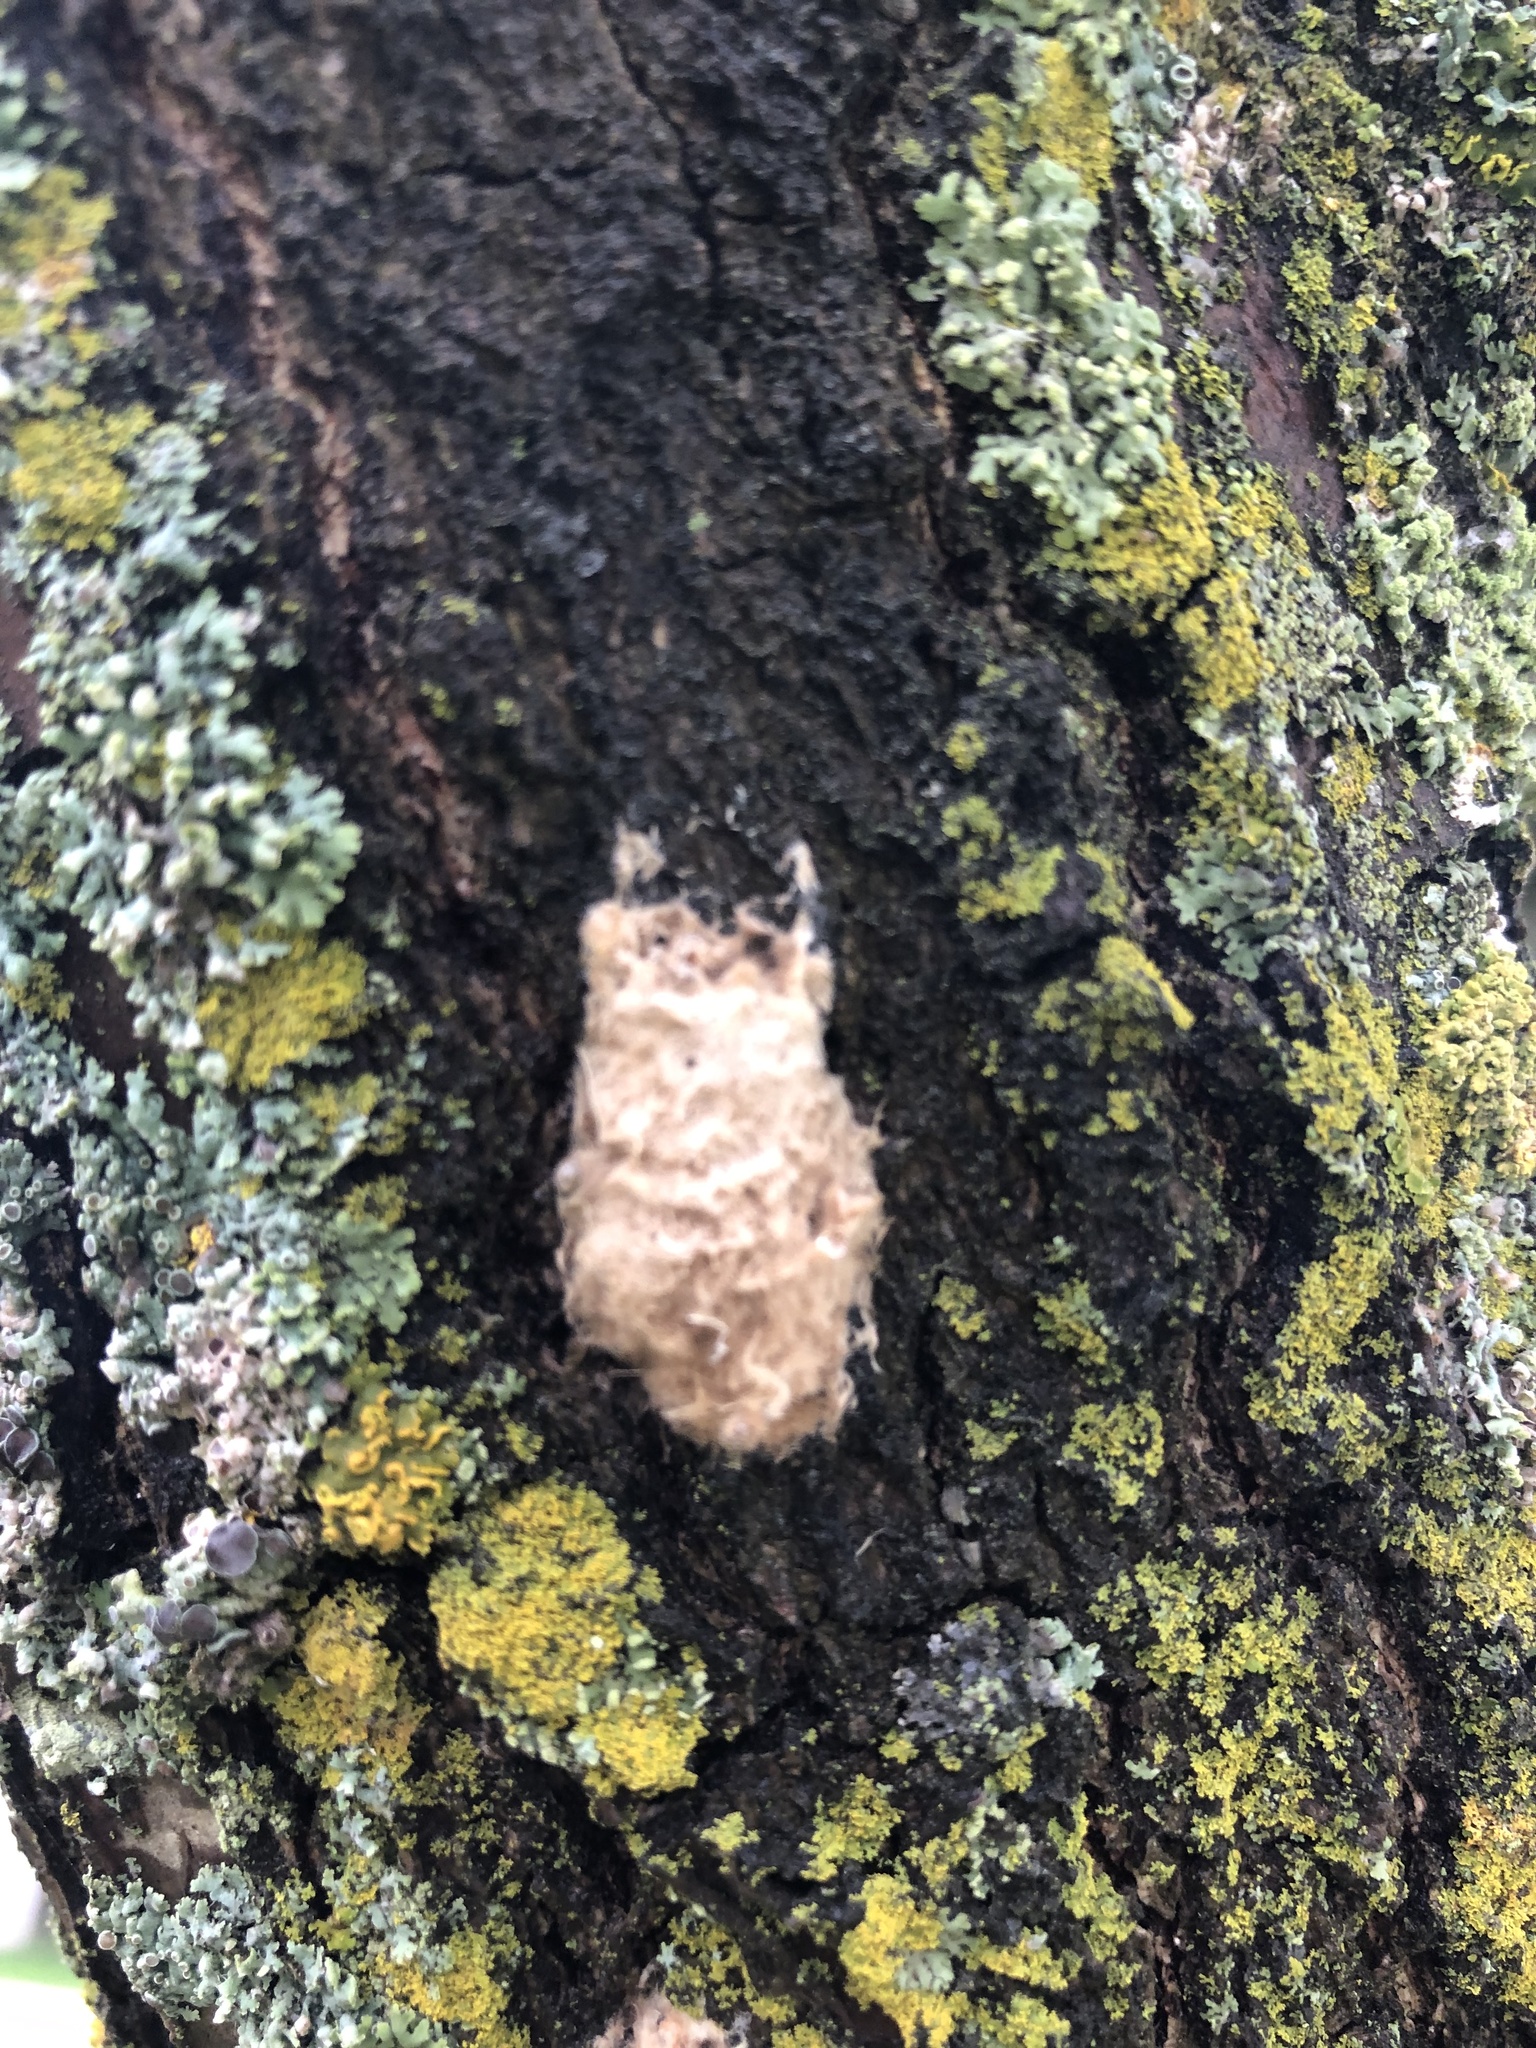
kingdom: Animalia
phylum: Arthropoda
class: Insecta
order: Lepidoptera
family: Erebidae
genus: Lymantria
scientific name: Lymantria dispar
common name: Gypsy moth
